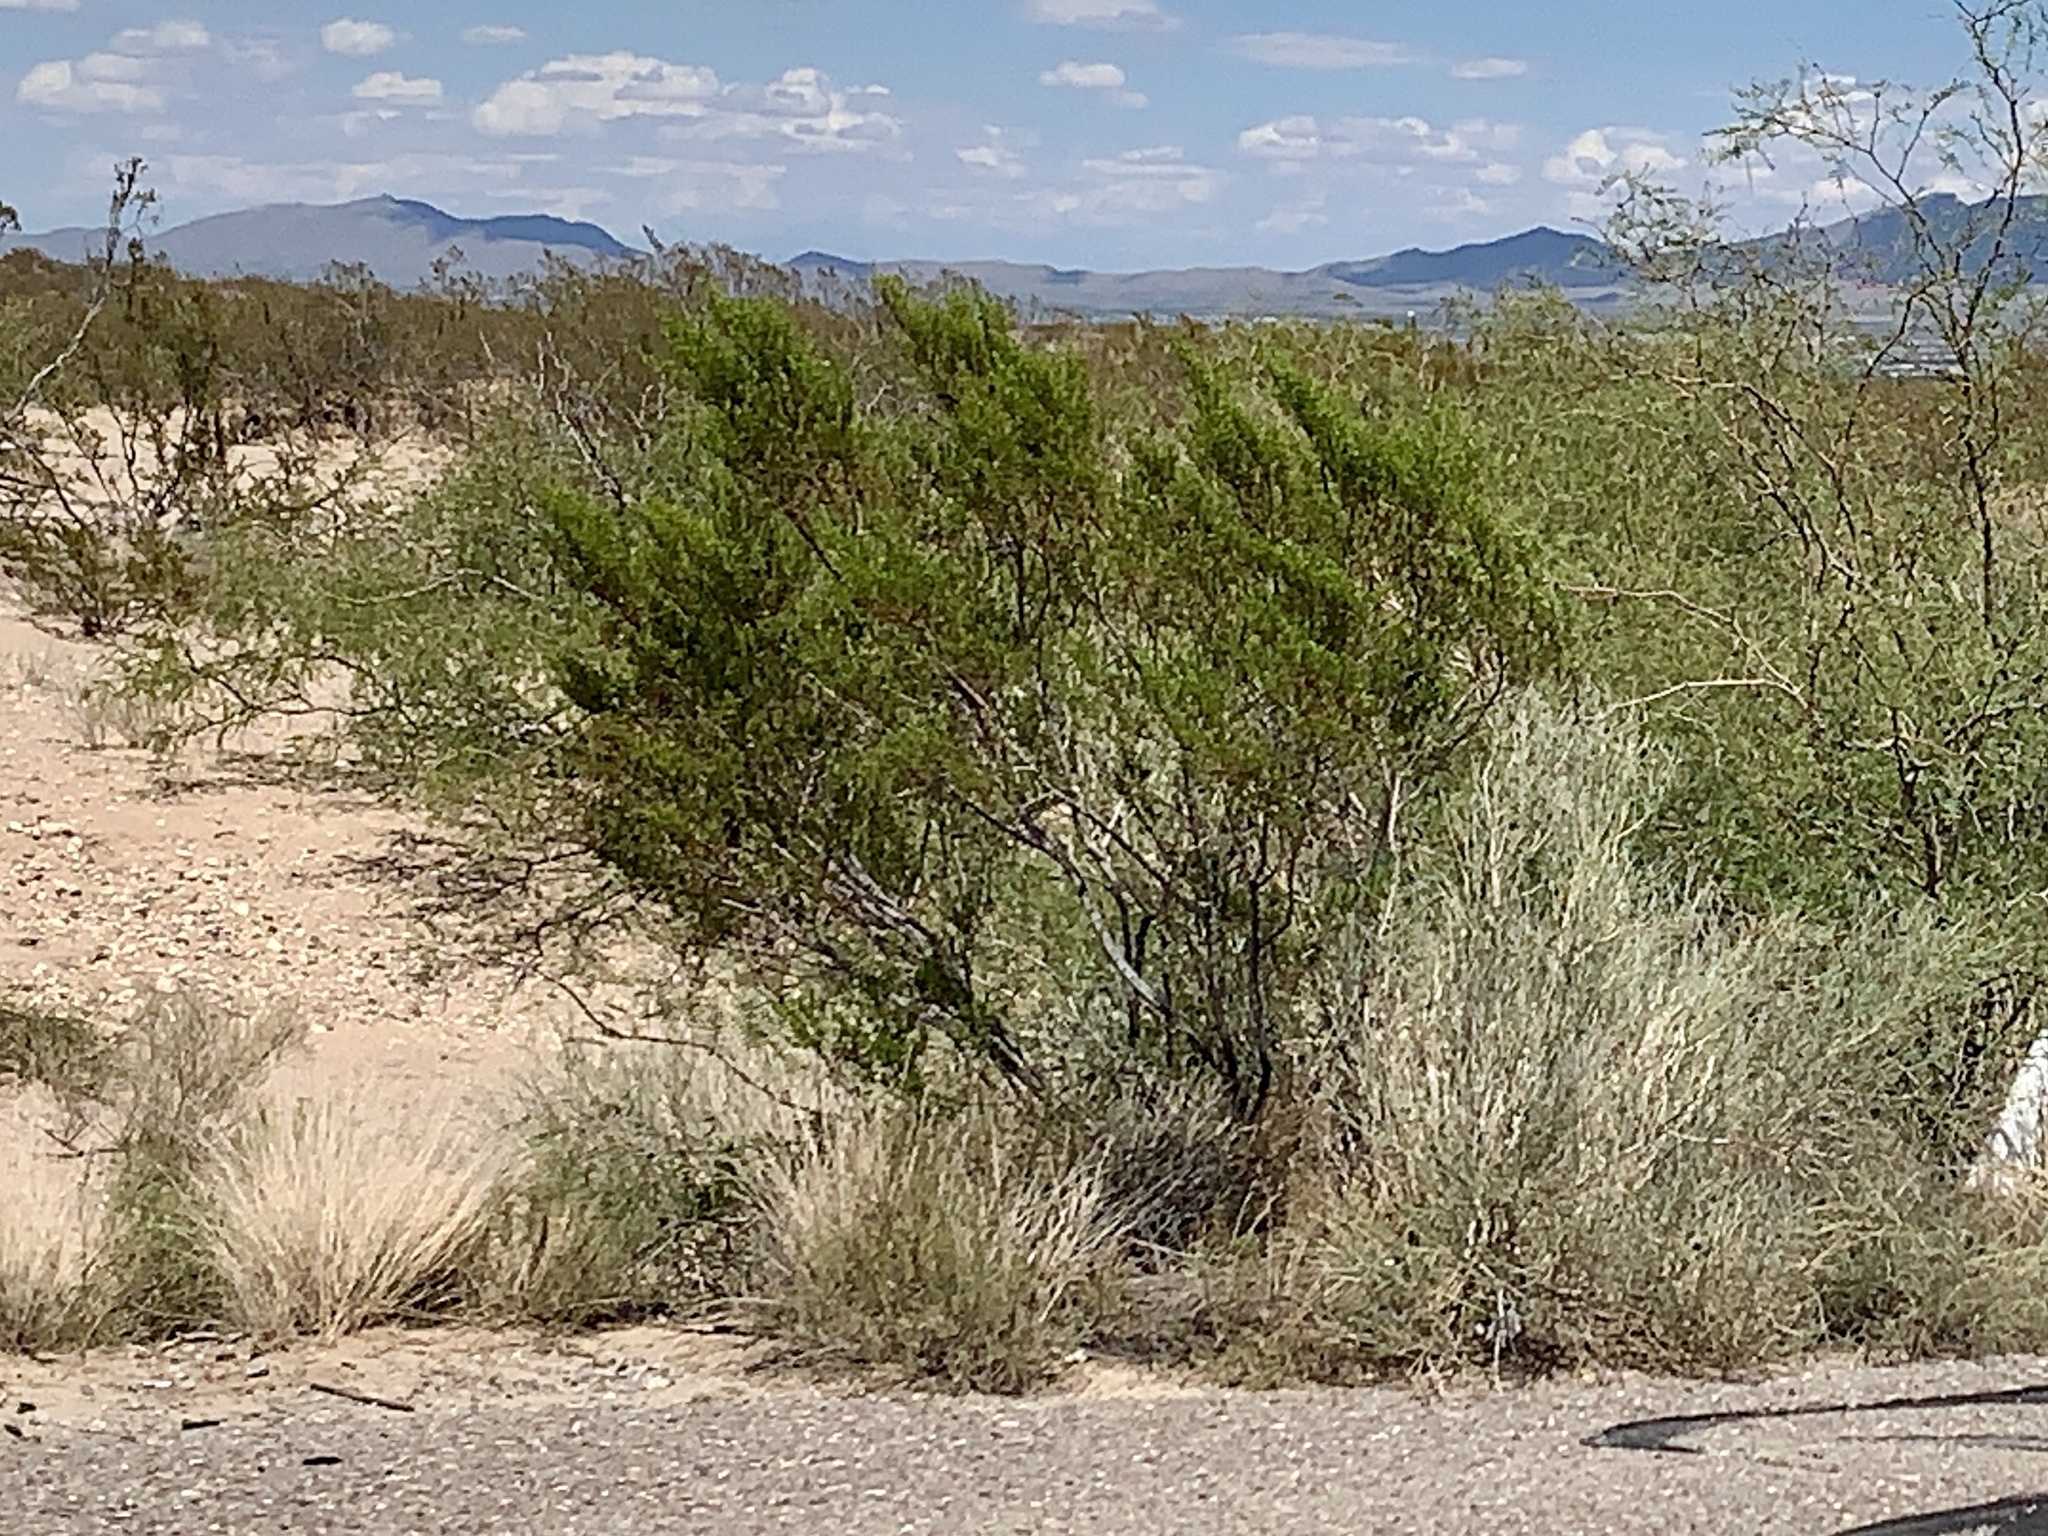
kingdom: Plantae
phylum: Tracheophyta
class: Magnoliopsida
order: Zygophyllales
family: Zygophyllaceae
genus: Larrea
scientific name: Larrea tridentata
